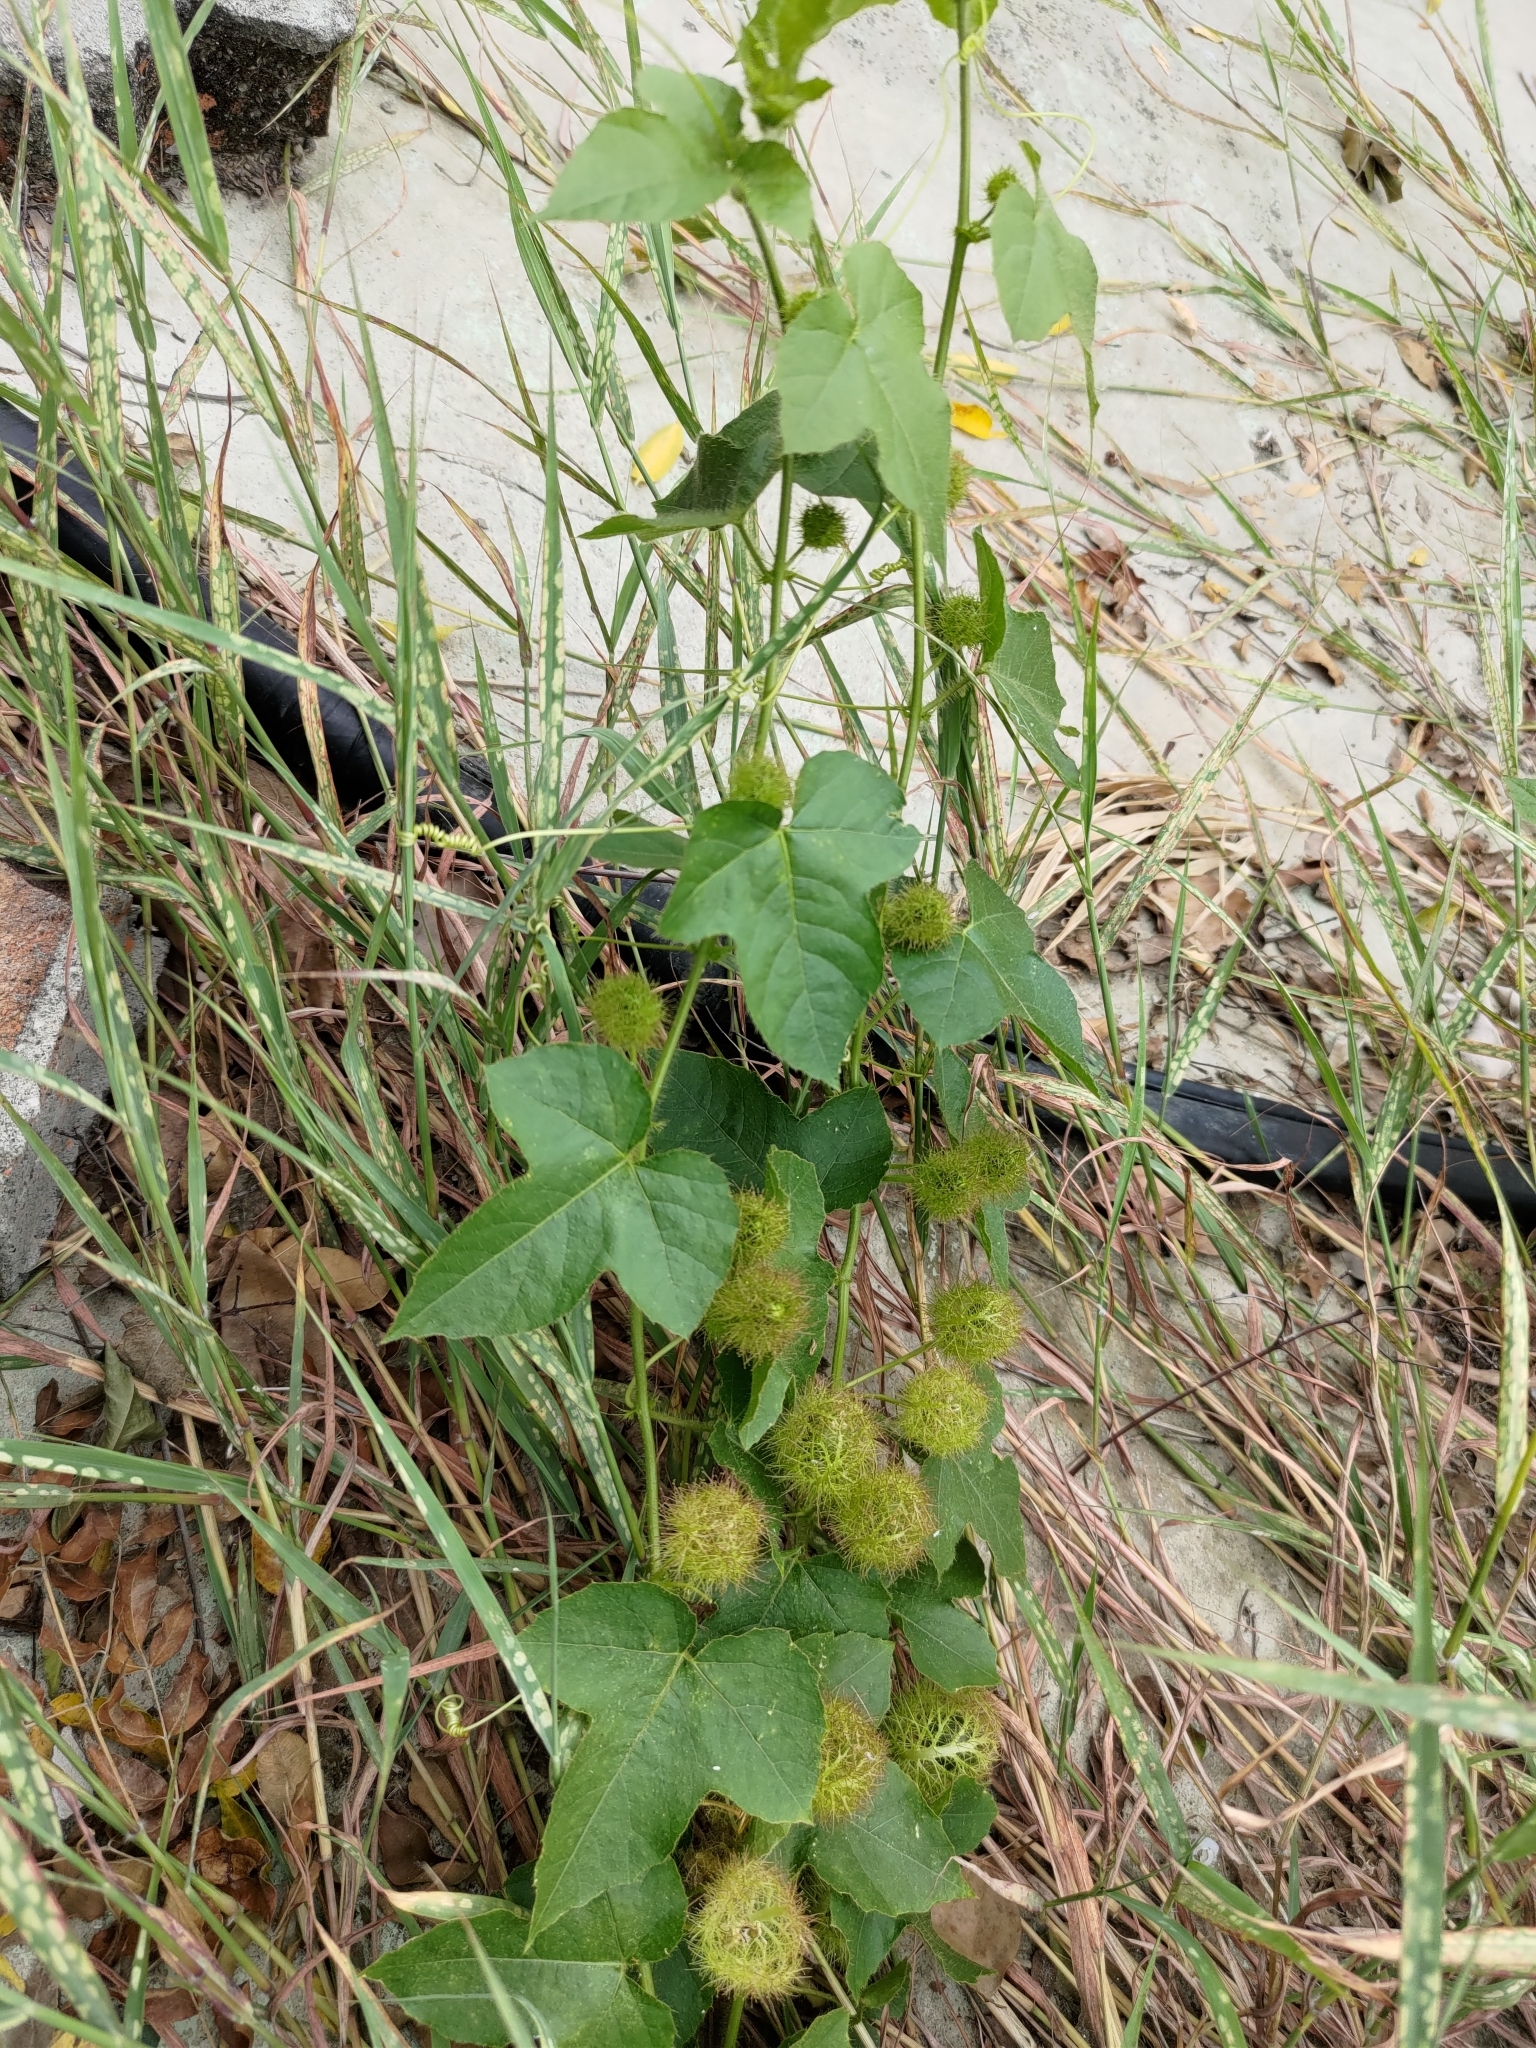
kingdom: Plantae
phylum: Tracheophyta
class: Magnoliopsida
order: Malpighiales
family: Passifloraceae
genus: Passiflora
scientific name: Passiflora vesicaria
